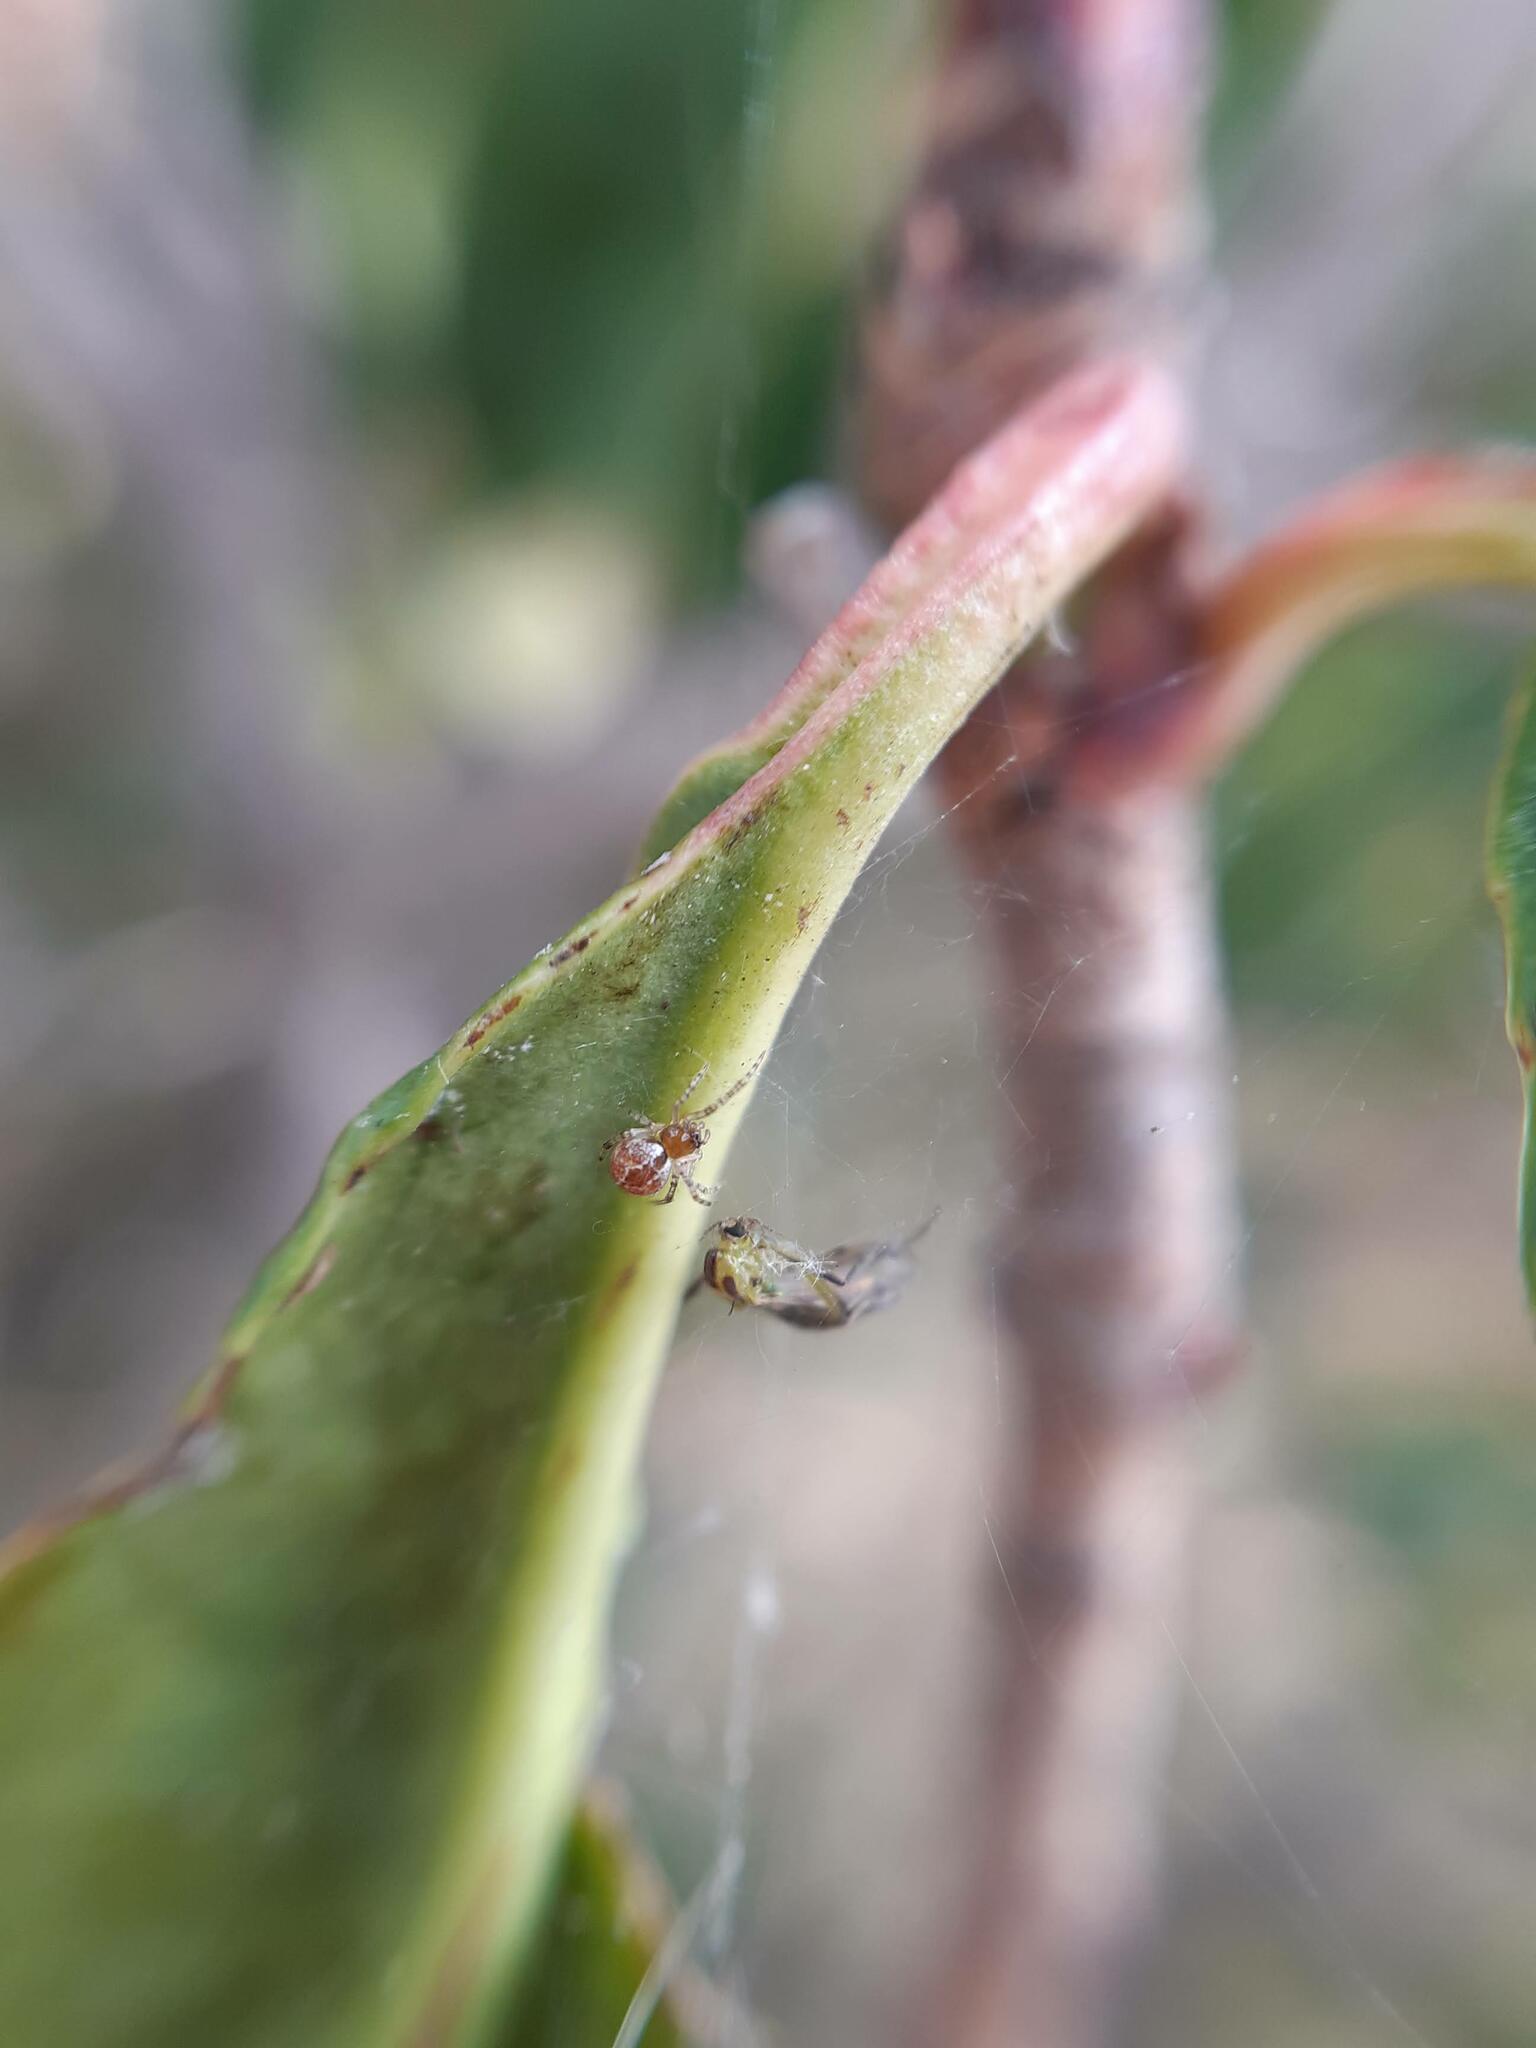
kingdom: Animalia
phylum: Arthropoda
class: Arachnida
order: Araneae
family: Theridiidae
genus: Cryptachaea
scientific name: Cryptachaea veruculata
